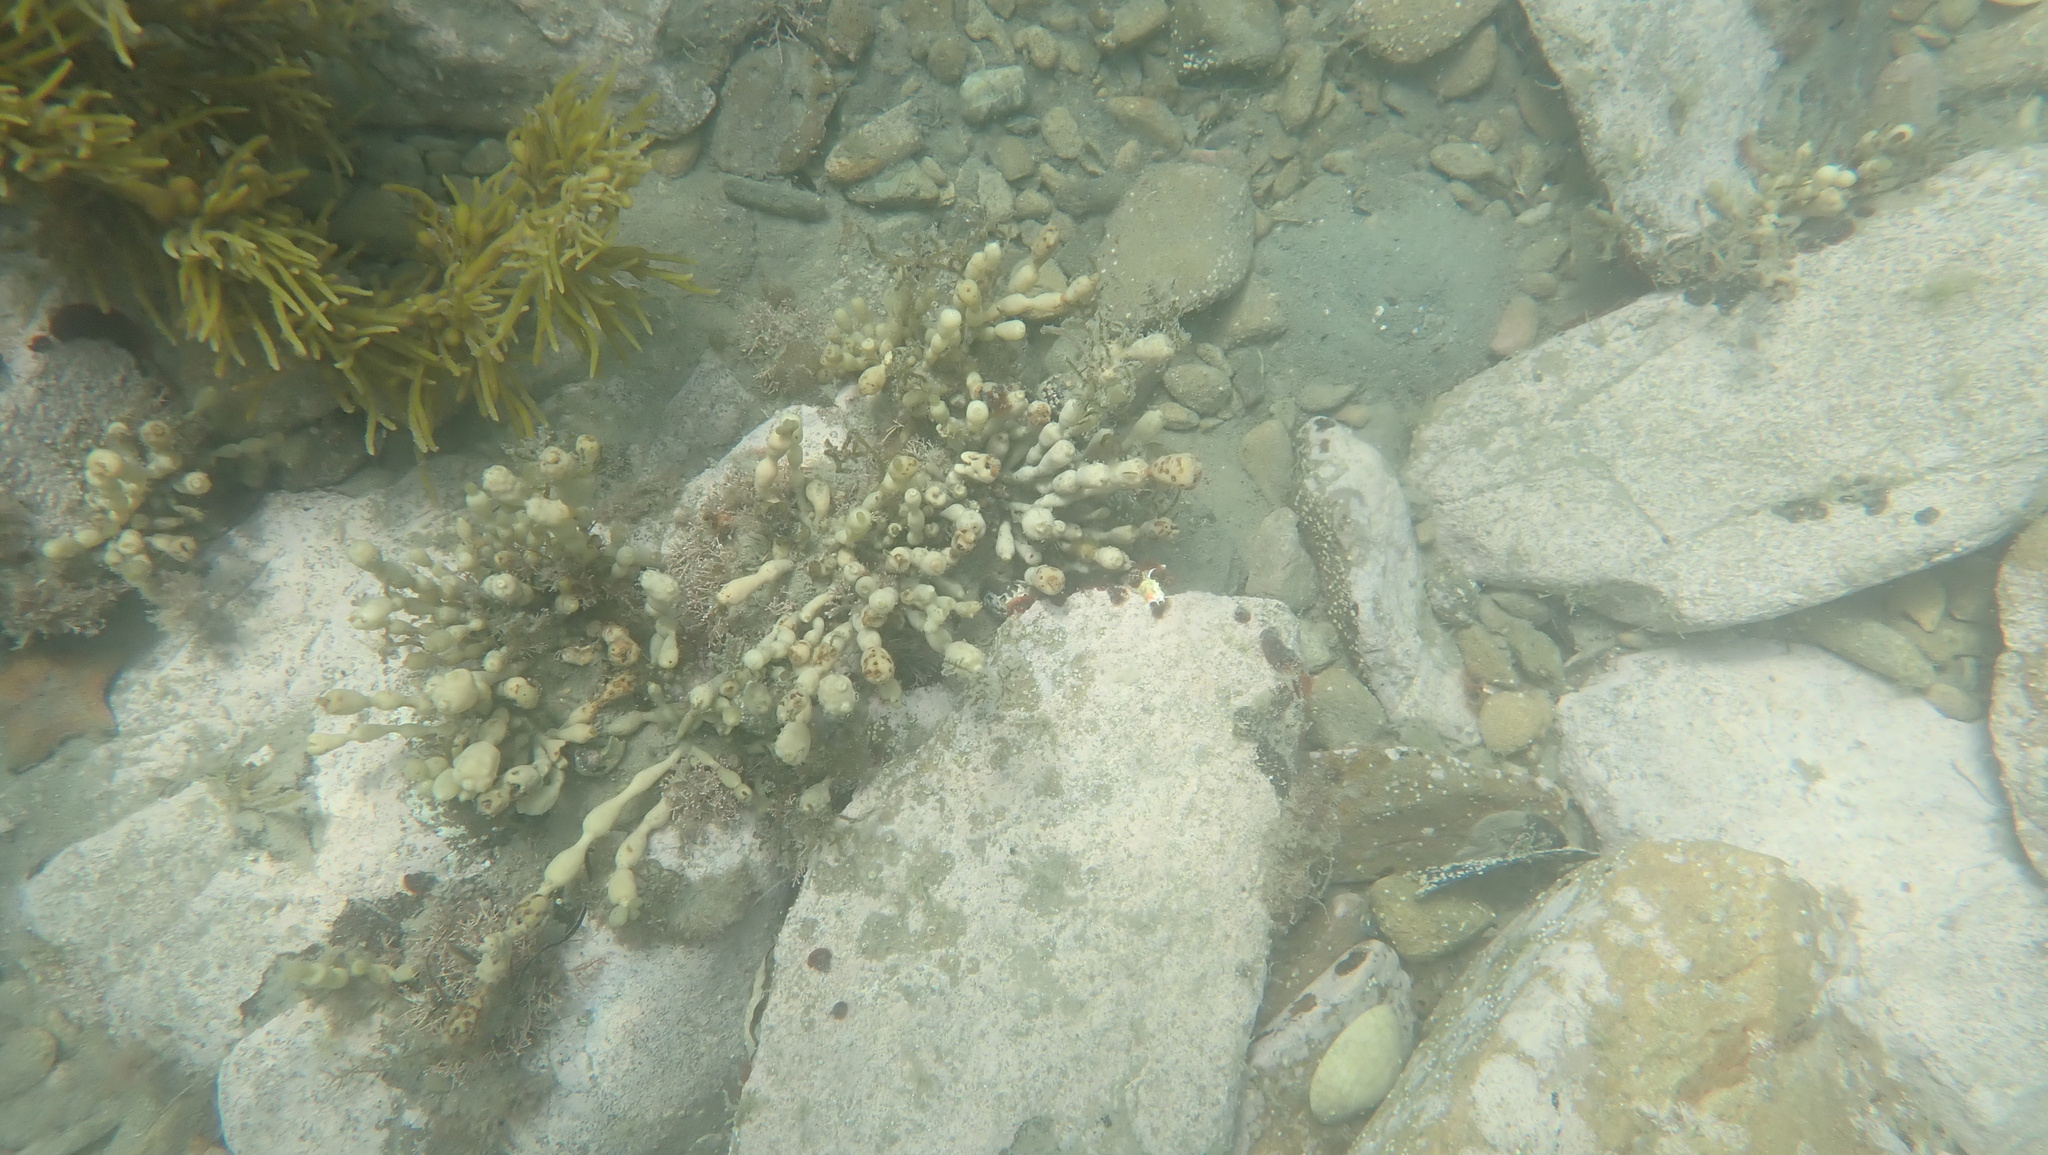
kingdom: Chromista
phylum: Ochrophyta
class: Phaeophyceae
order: Fucales
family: Hormosiraceae
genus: Hormosira
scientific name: Hormosira banksii
